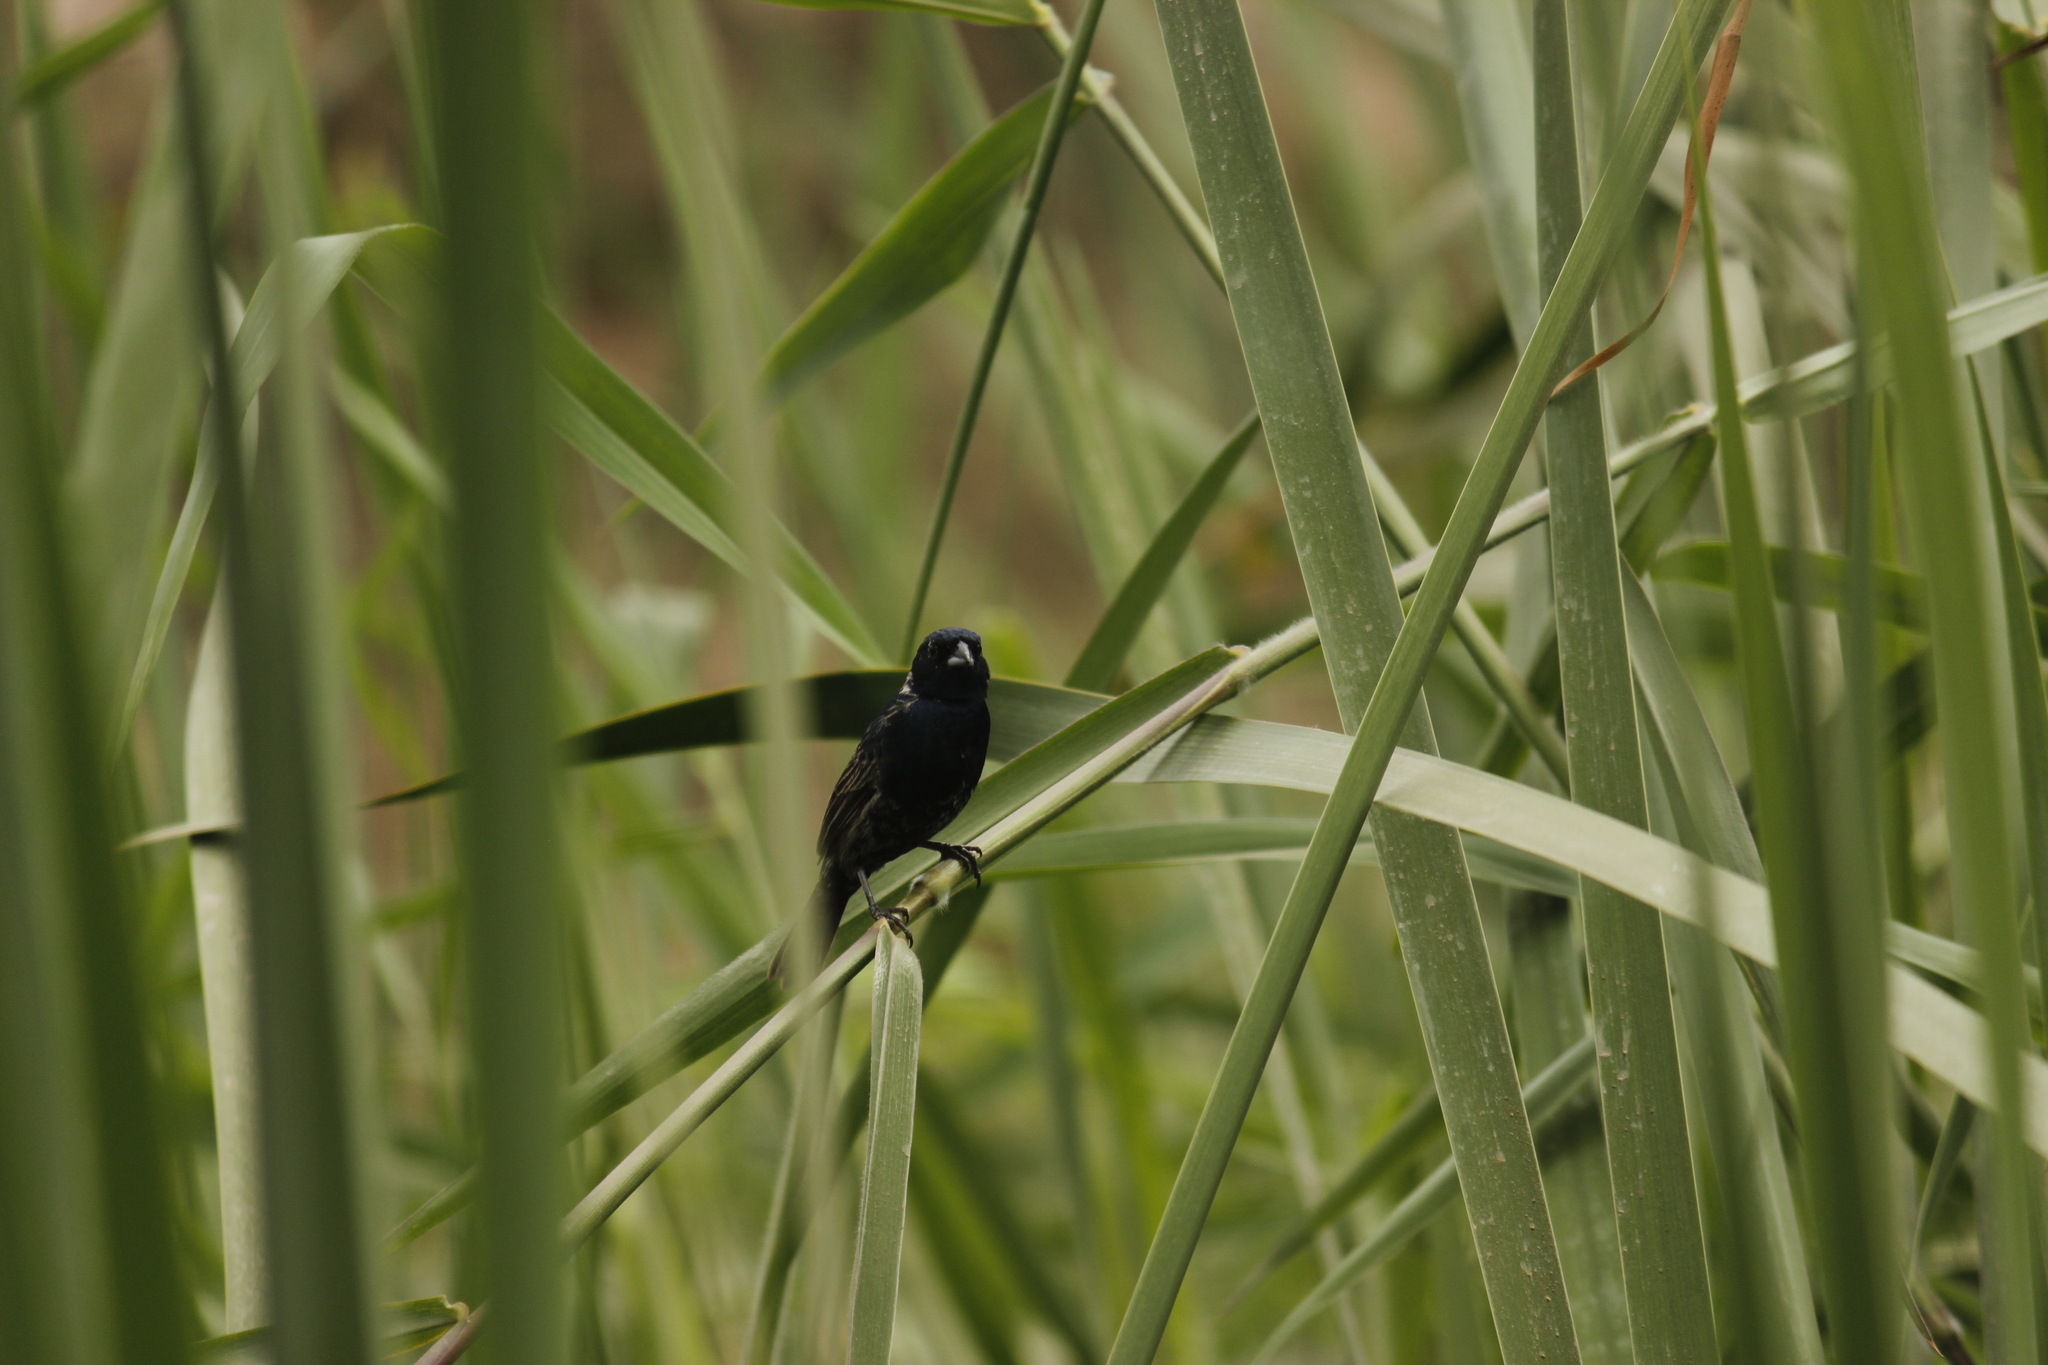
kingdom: Animalia
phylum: Chordata
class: Aves
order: Passeriformes
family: Thraupidae
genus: Volatinia
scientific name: Volatinia jacarina
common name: Blue-black grassquit
